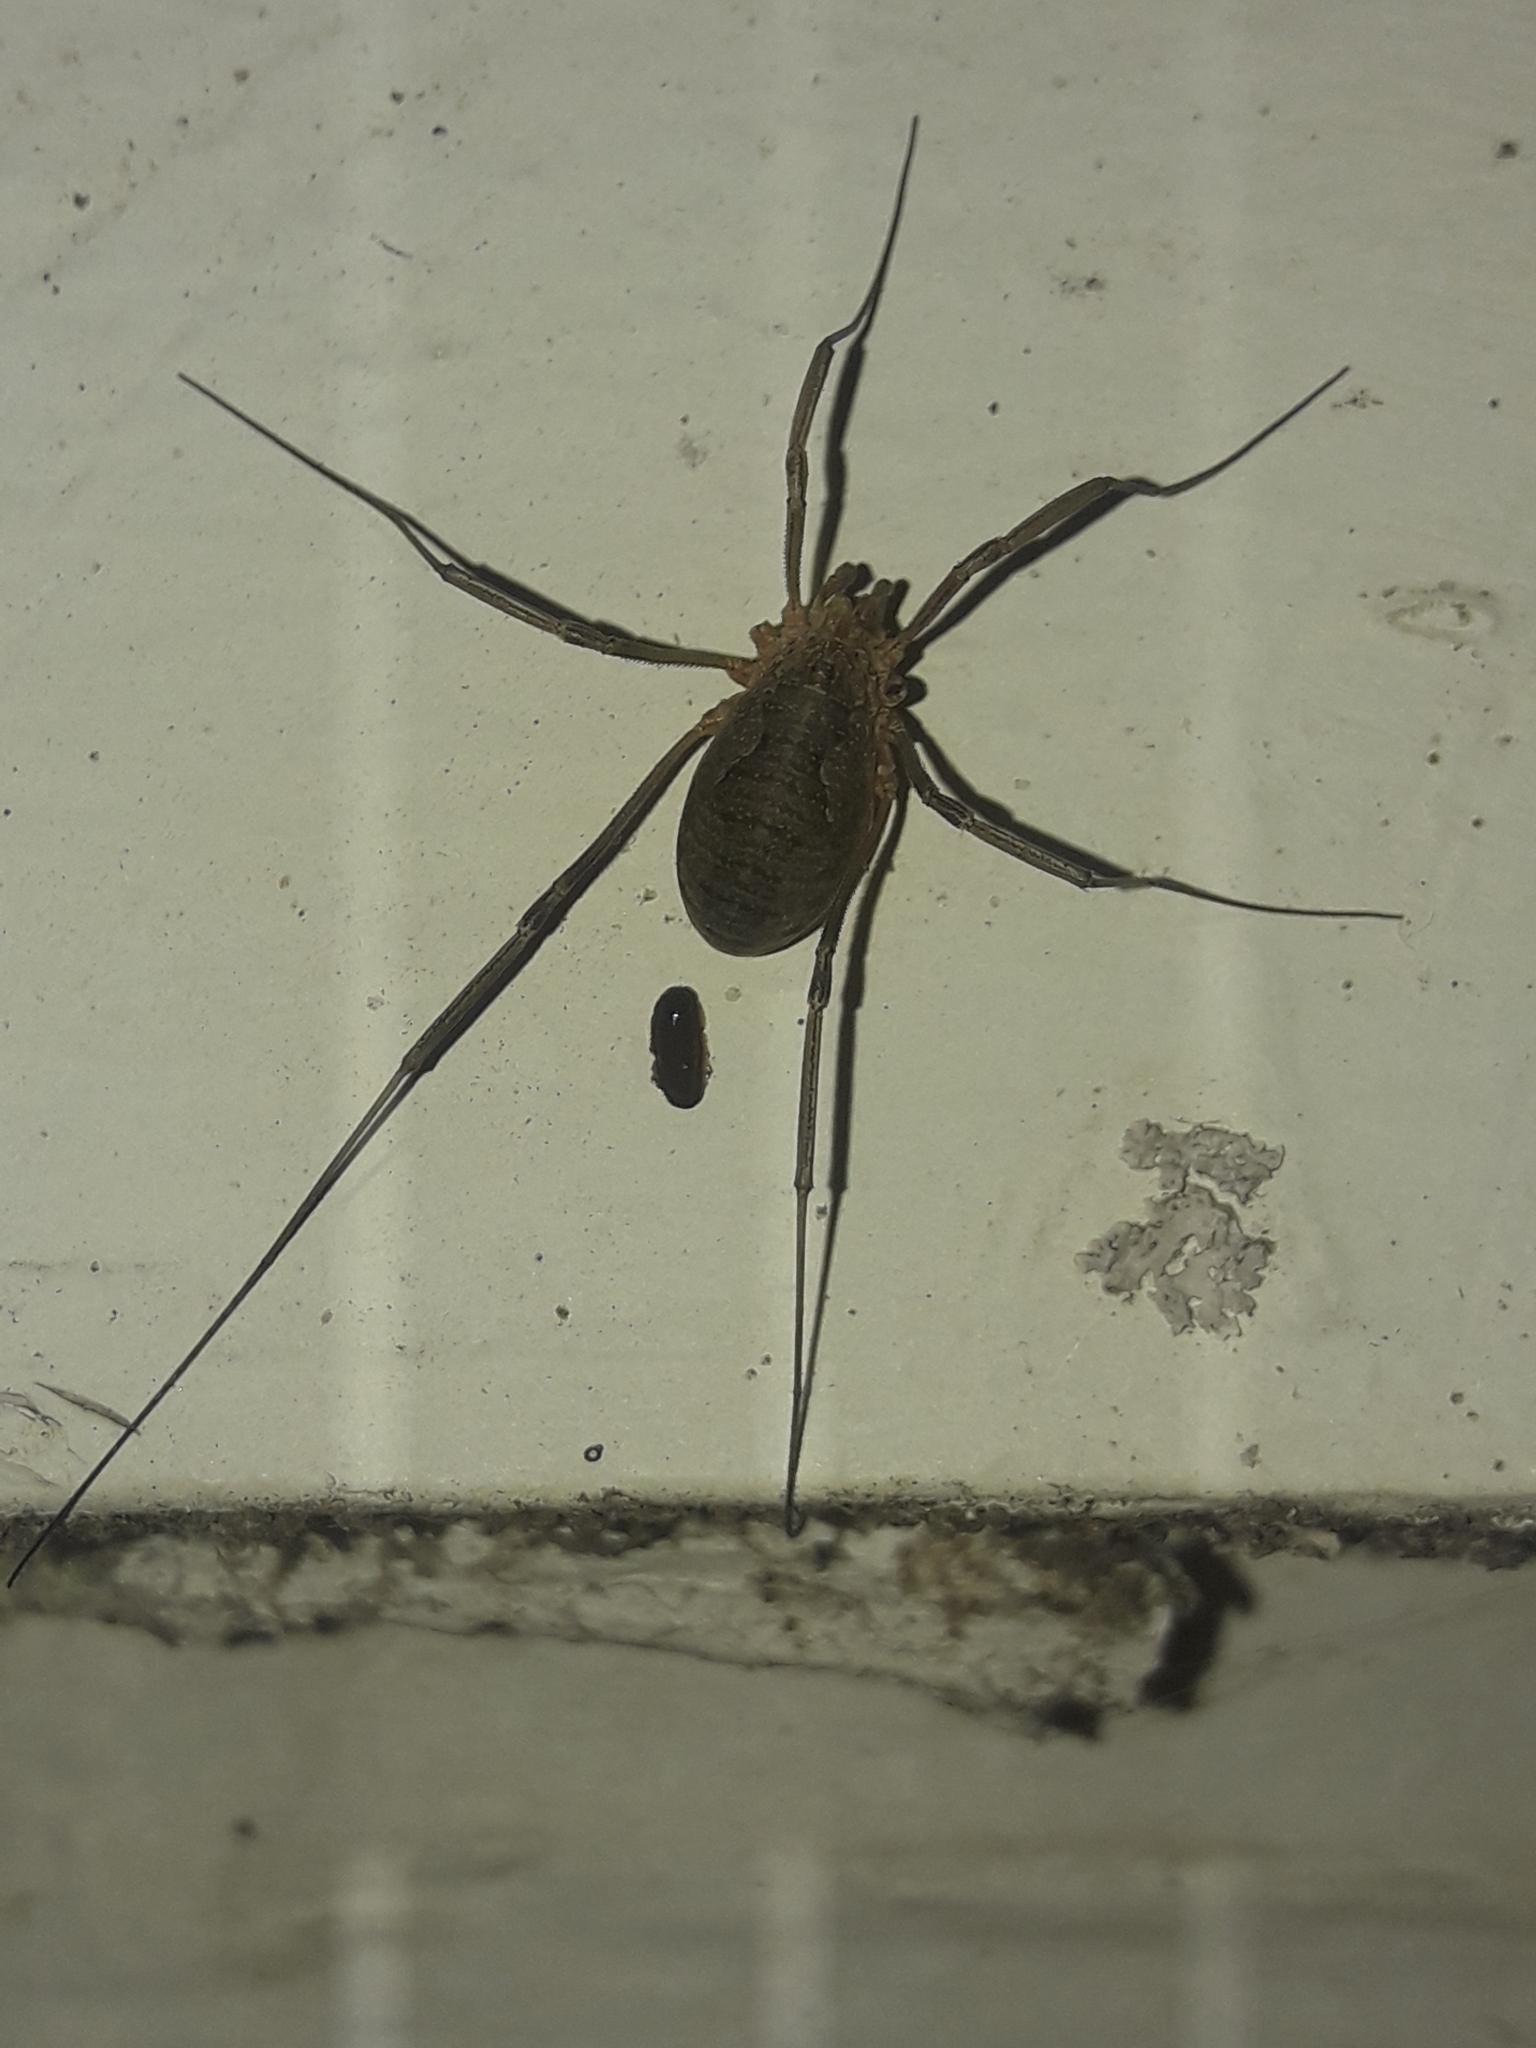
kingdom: Animalia
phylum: Arthropoda
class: Arachnida
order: Opiliones
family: Phalangiidae
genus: Phalangium
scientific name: Phalangium opilio
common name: Daddy longleg
